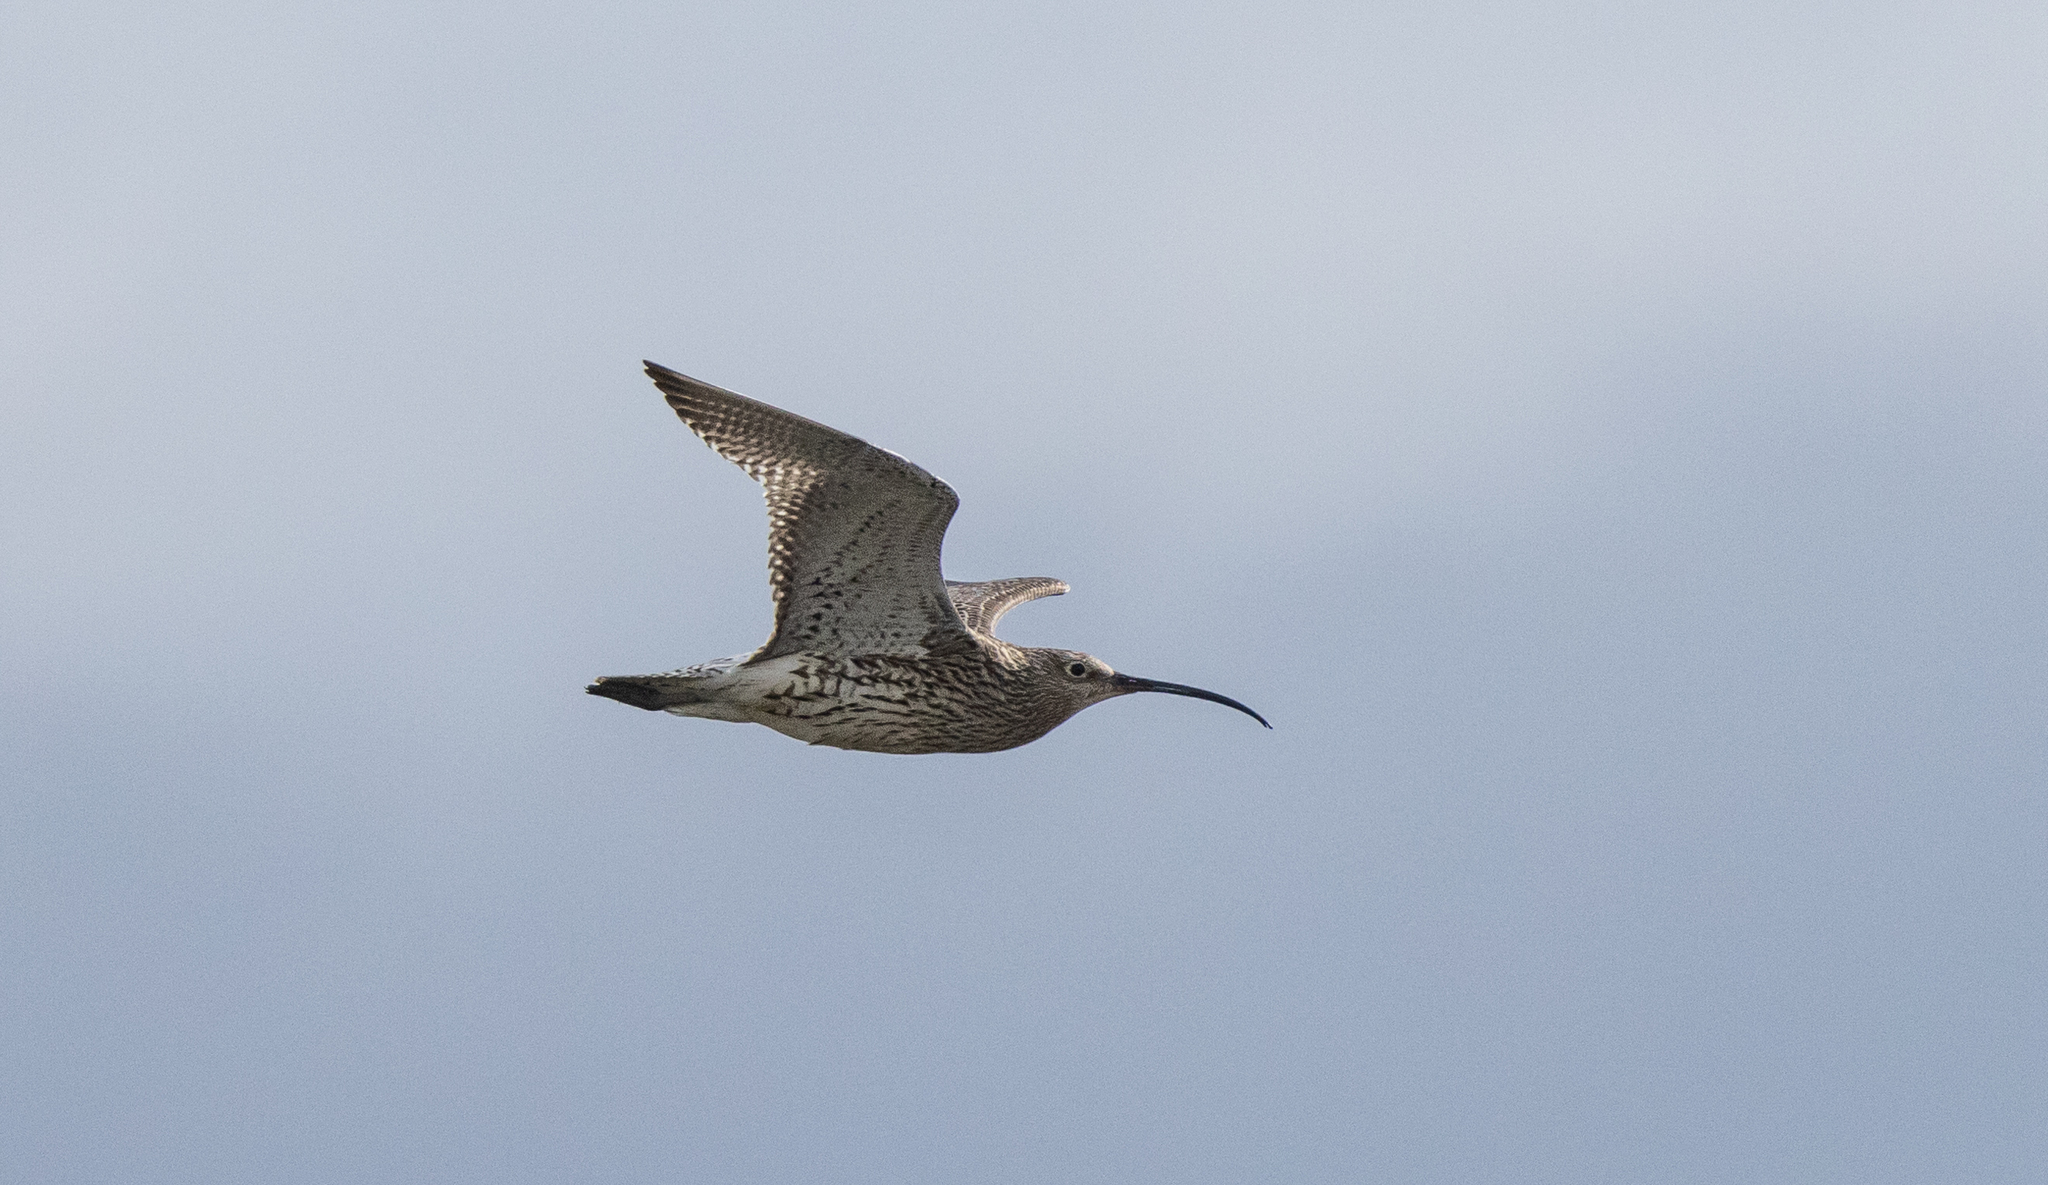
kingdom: Animalia
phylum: Chordata
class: Aves
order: Charadriiformes
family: Scolopacidae
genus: Numenius
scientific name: Numenius arquata
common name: Eurasian curlew
